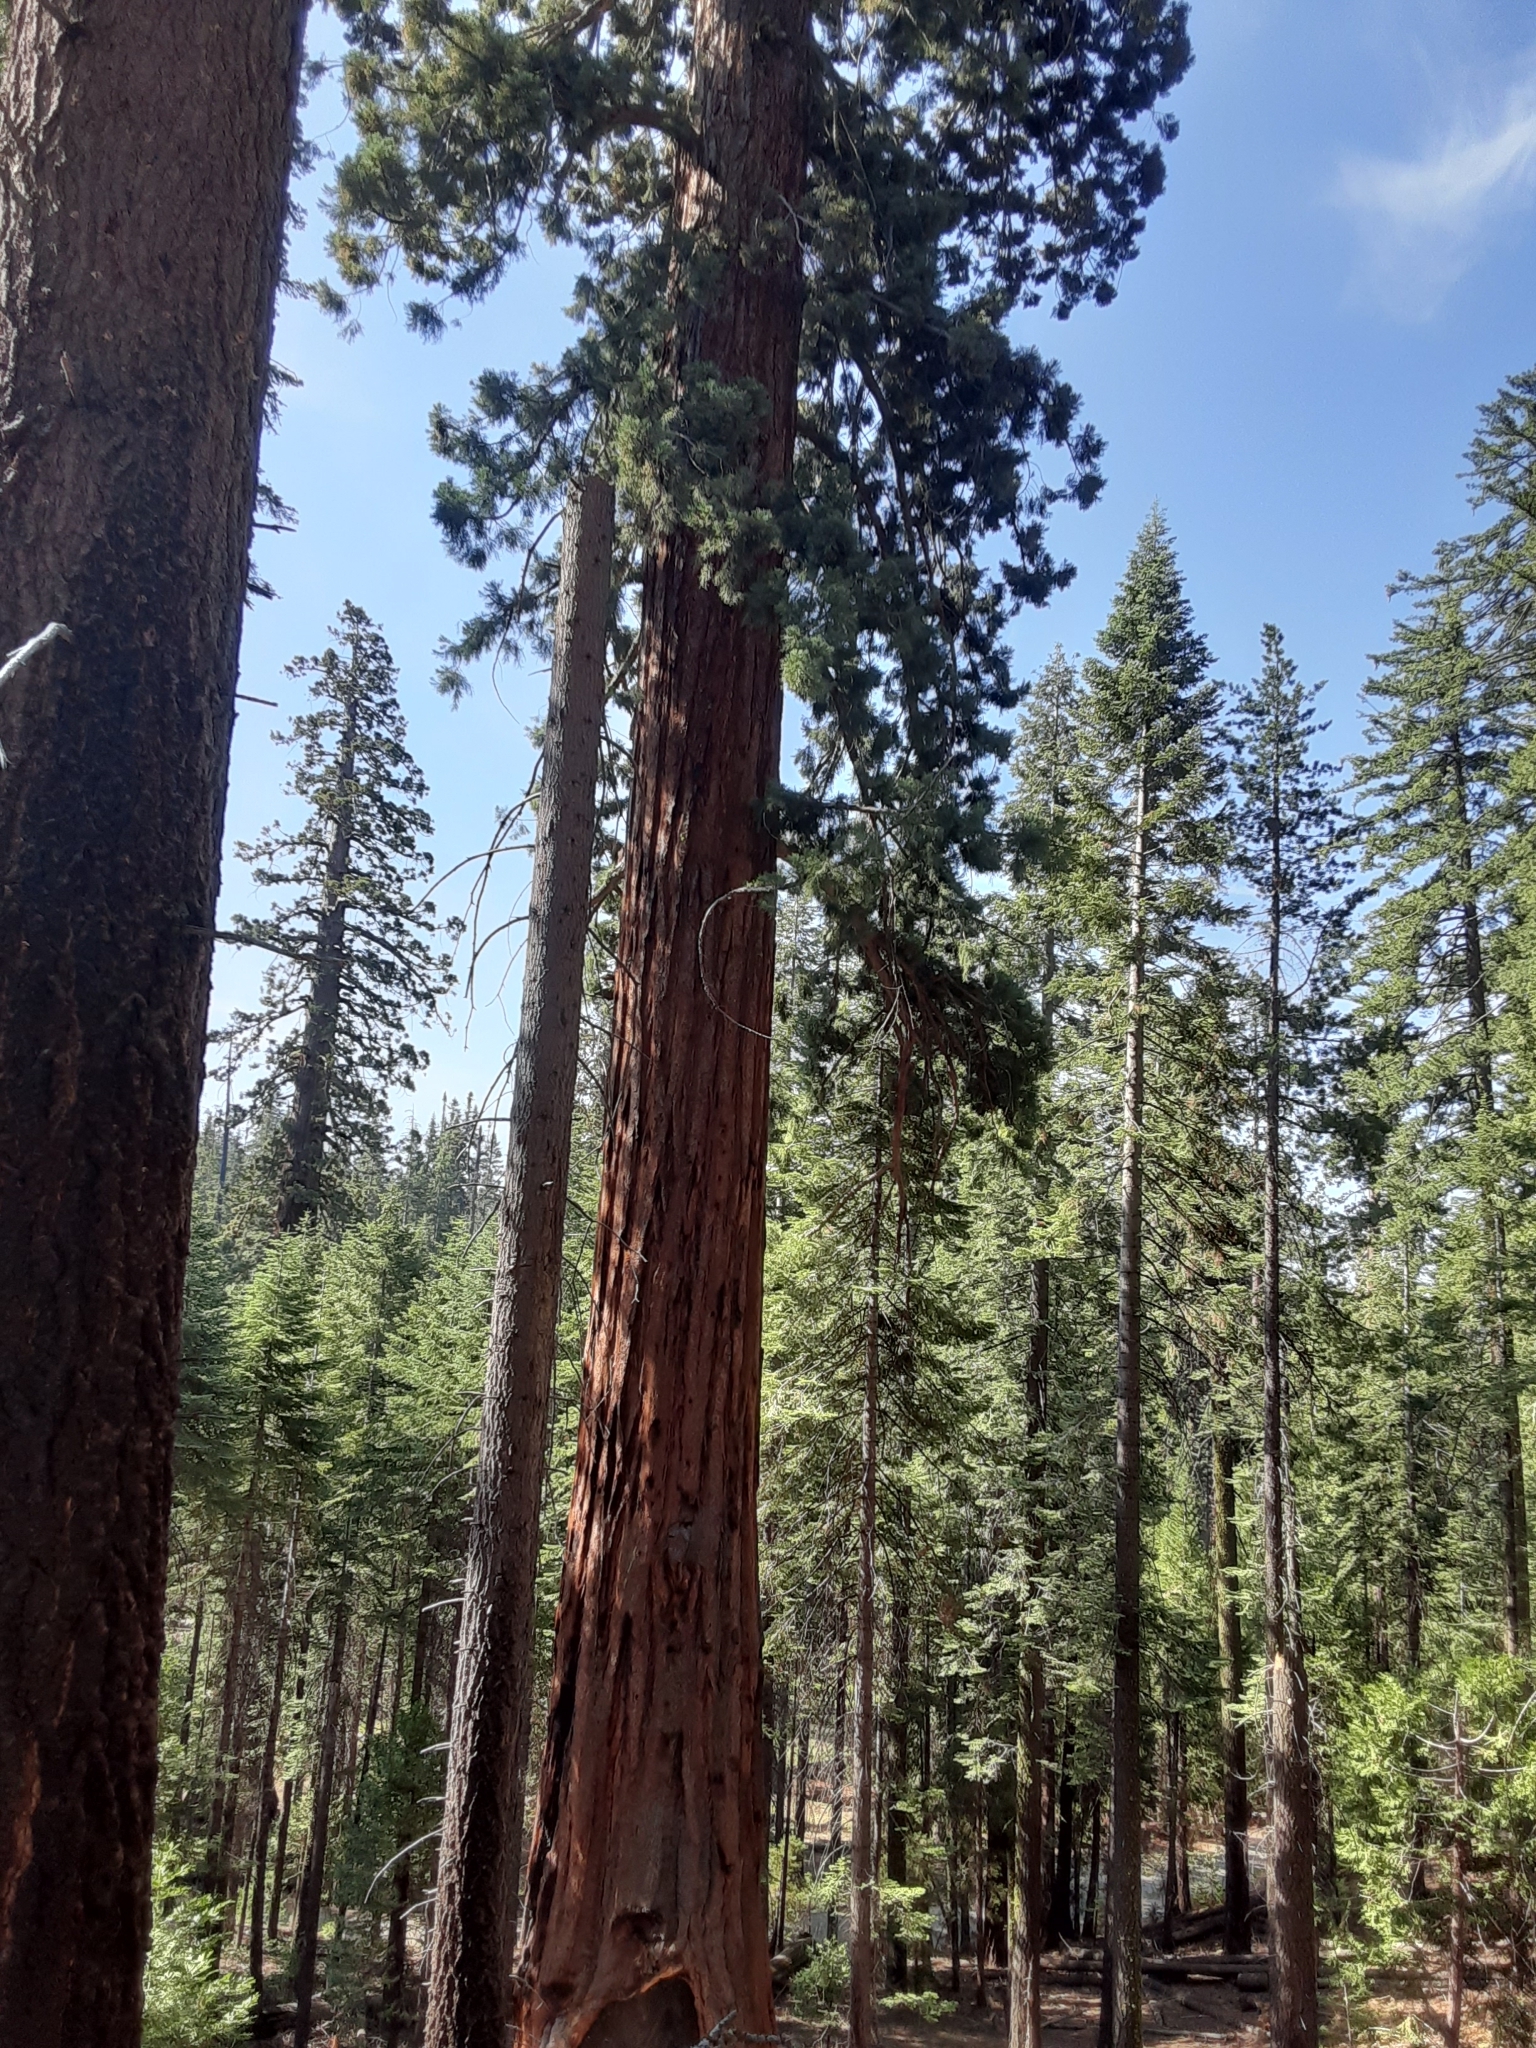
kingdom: Plantae
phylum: Tracheophyta
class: Pinopsida
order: Pinales
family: Cupressaceae
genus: Sequoiadendron
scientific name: Sequoiadendron giganteum
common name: Wellingtonia
